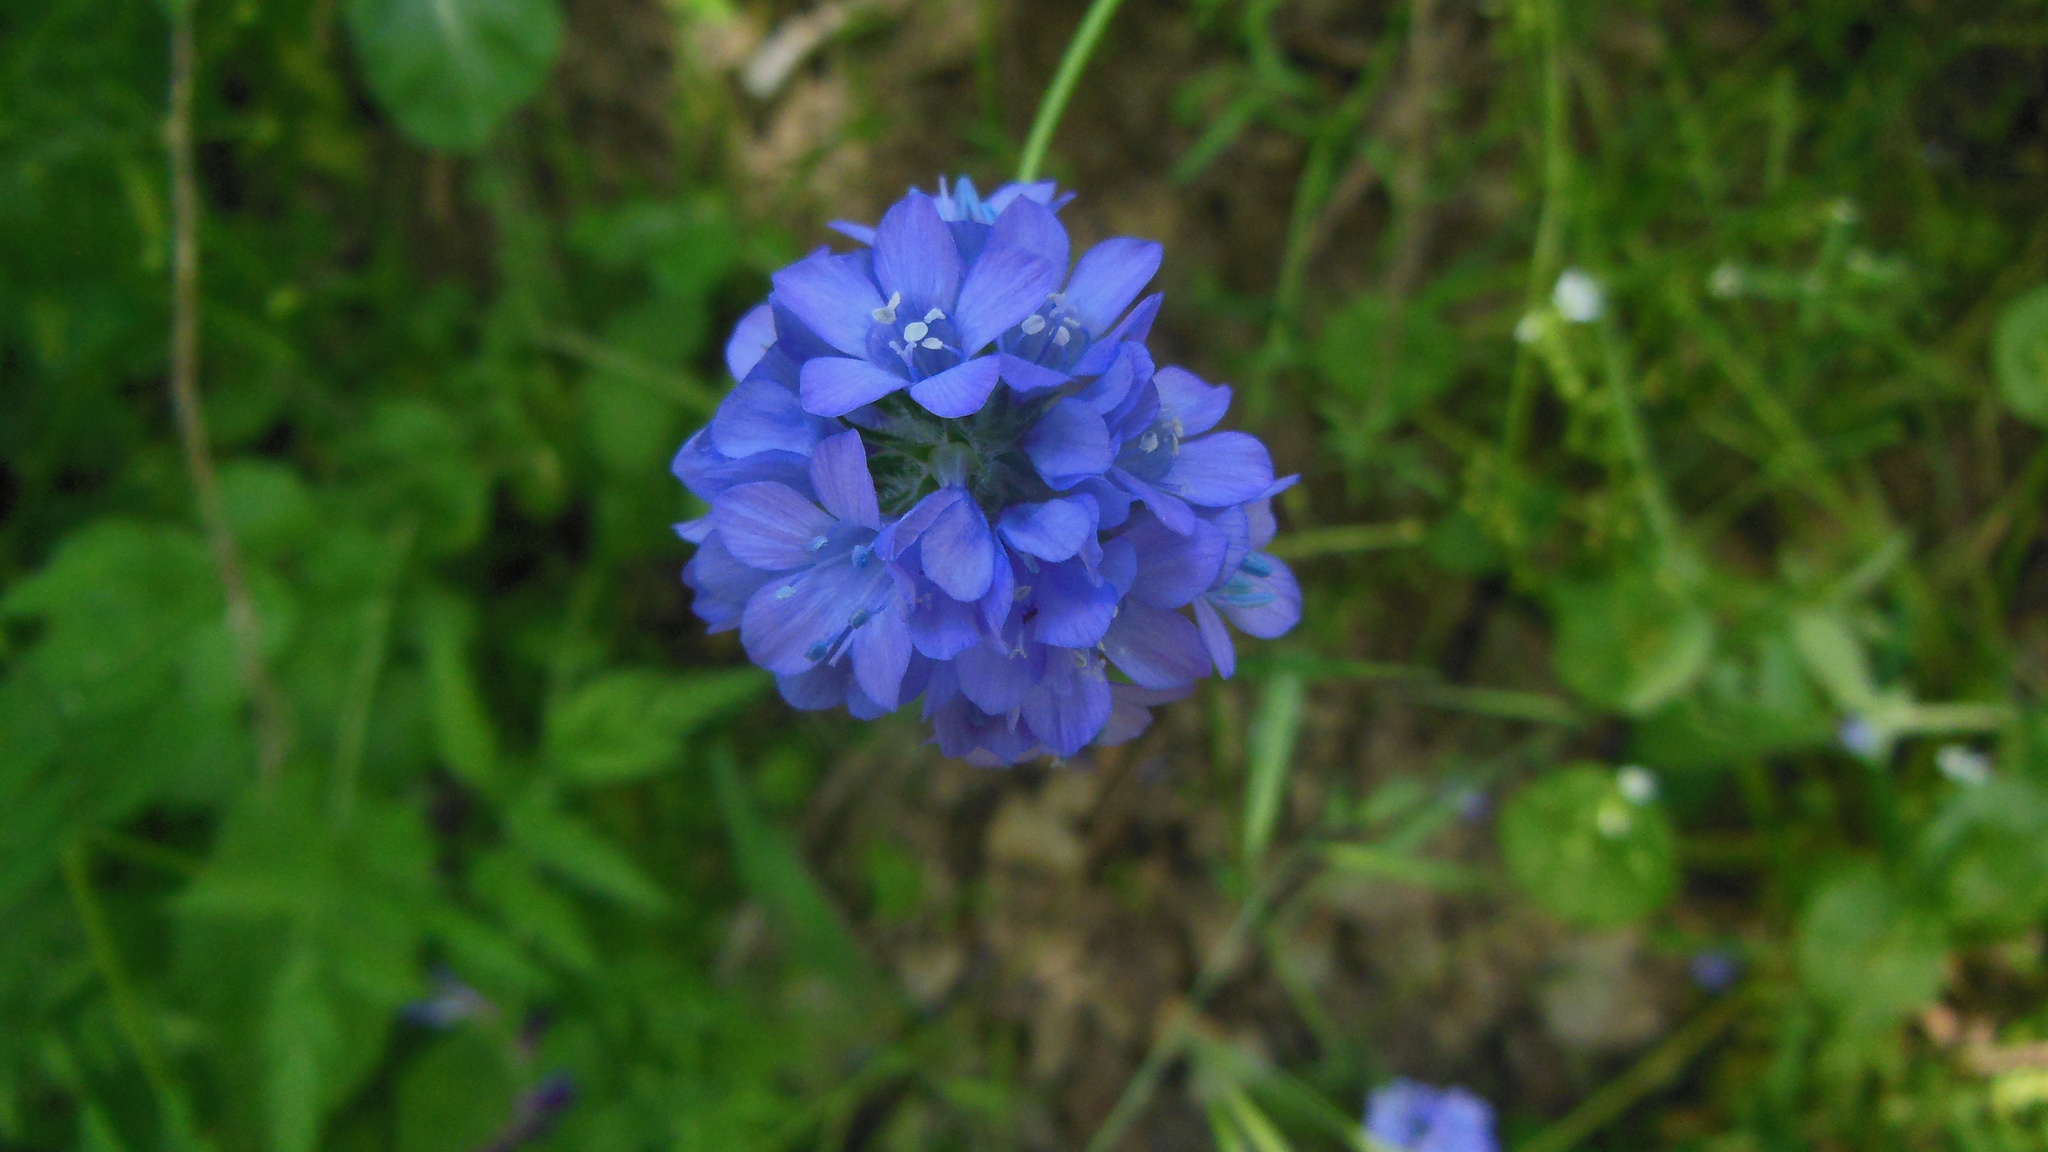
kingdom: Plantae
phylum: Tracheophyta
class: Magnoliopsida
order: Ericales
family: Polemoniaceae
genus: Gilia
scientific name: Gilia achilleifolia
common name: California gily-flower
